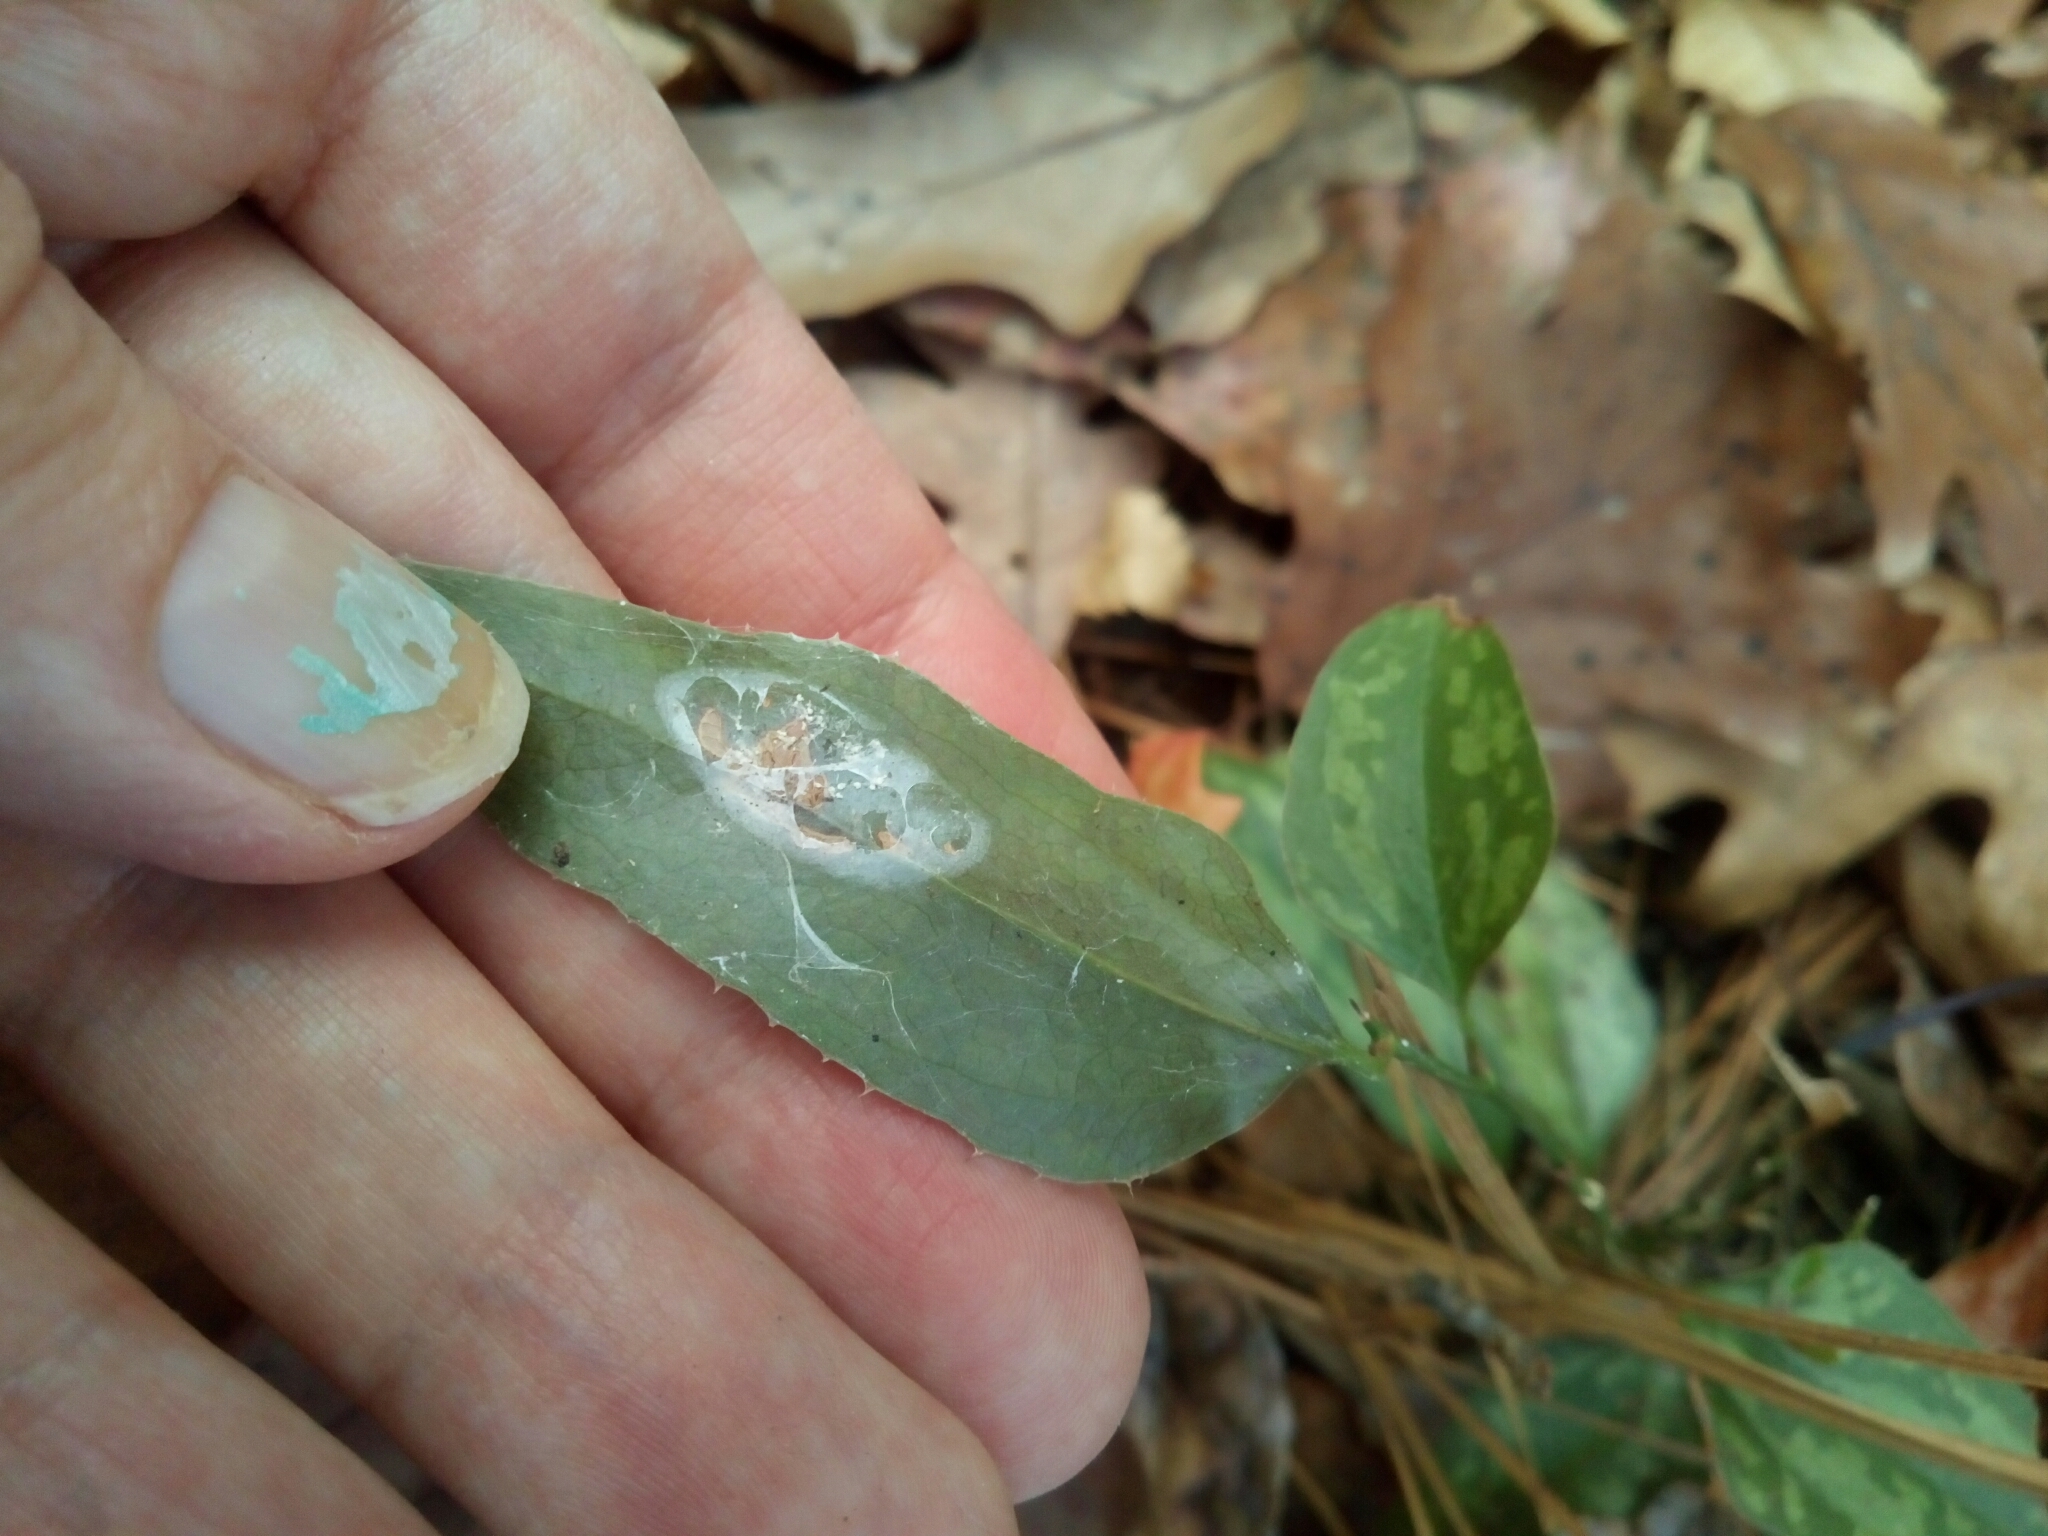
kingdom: Plantae
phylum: Tracheophyta
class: Liliopsida
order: Liliales
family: Smilacaceae
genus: Smilax
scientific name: Smilax bona-nox
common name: Catbrier
